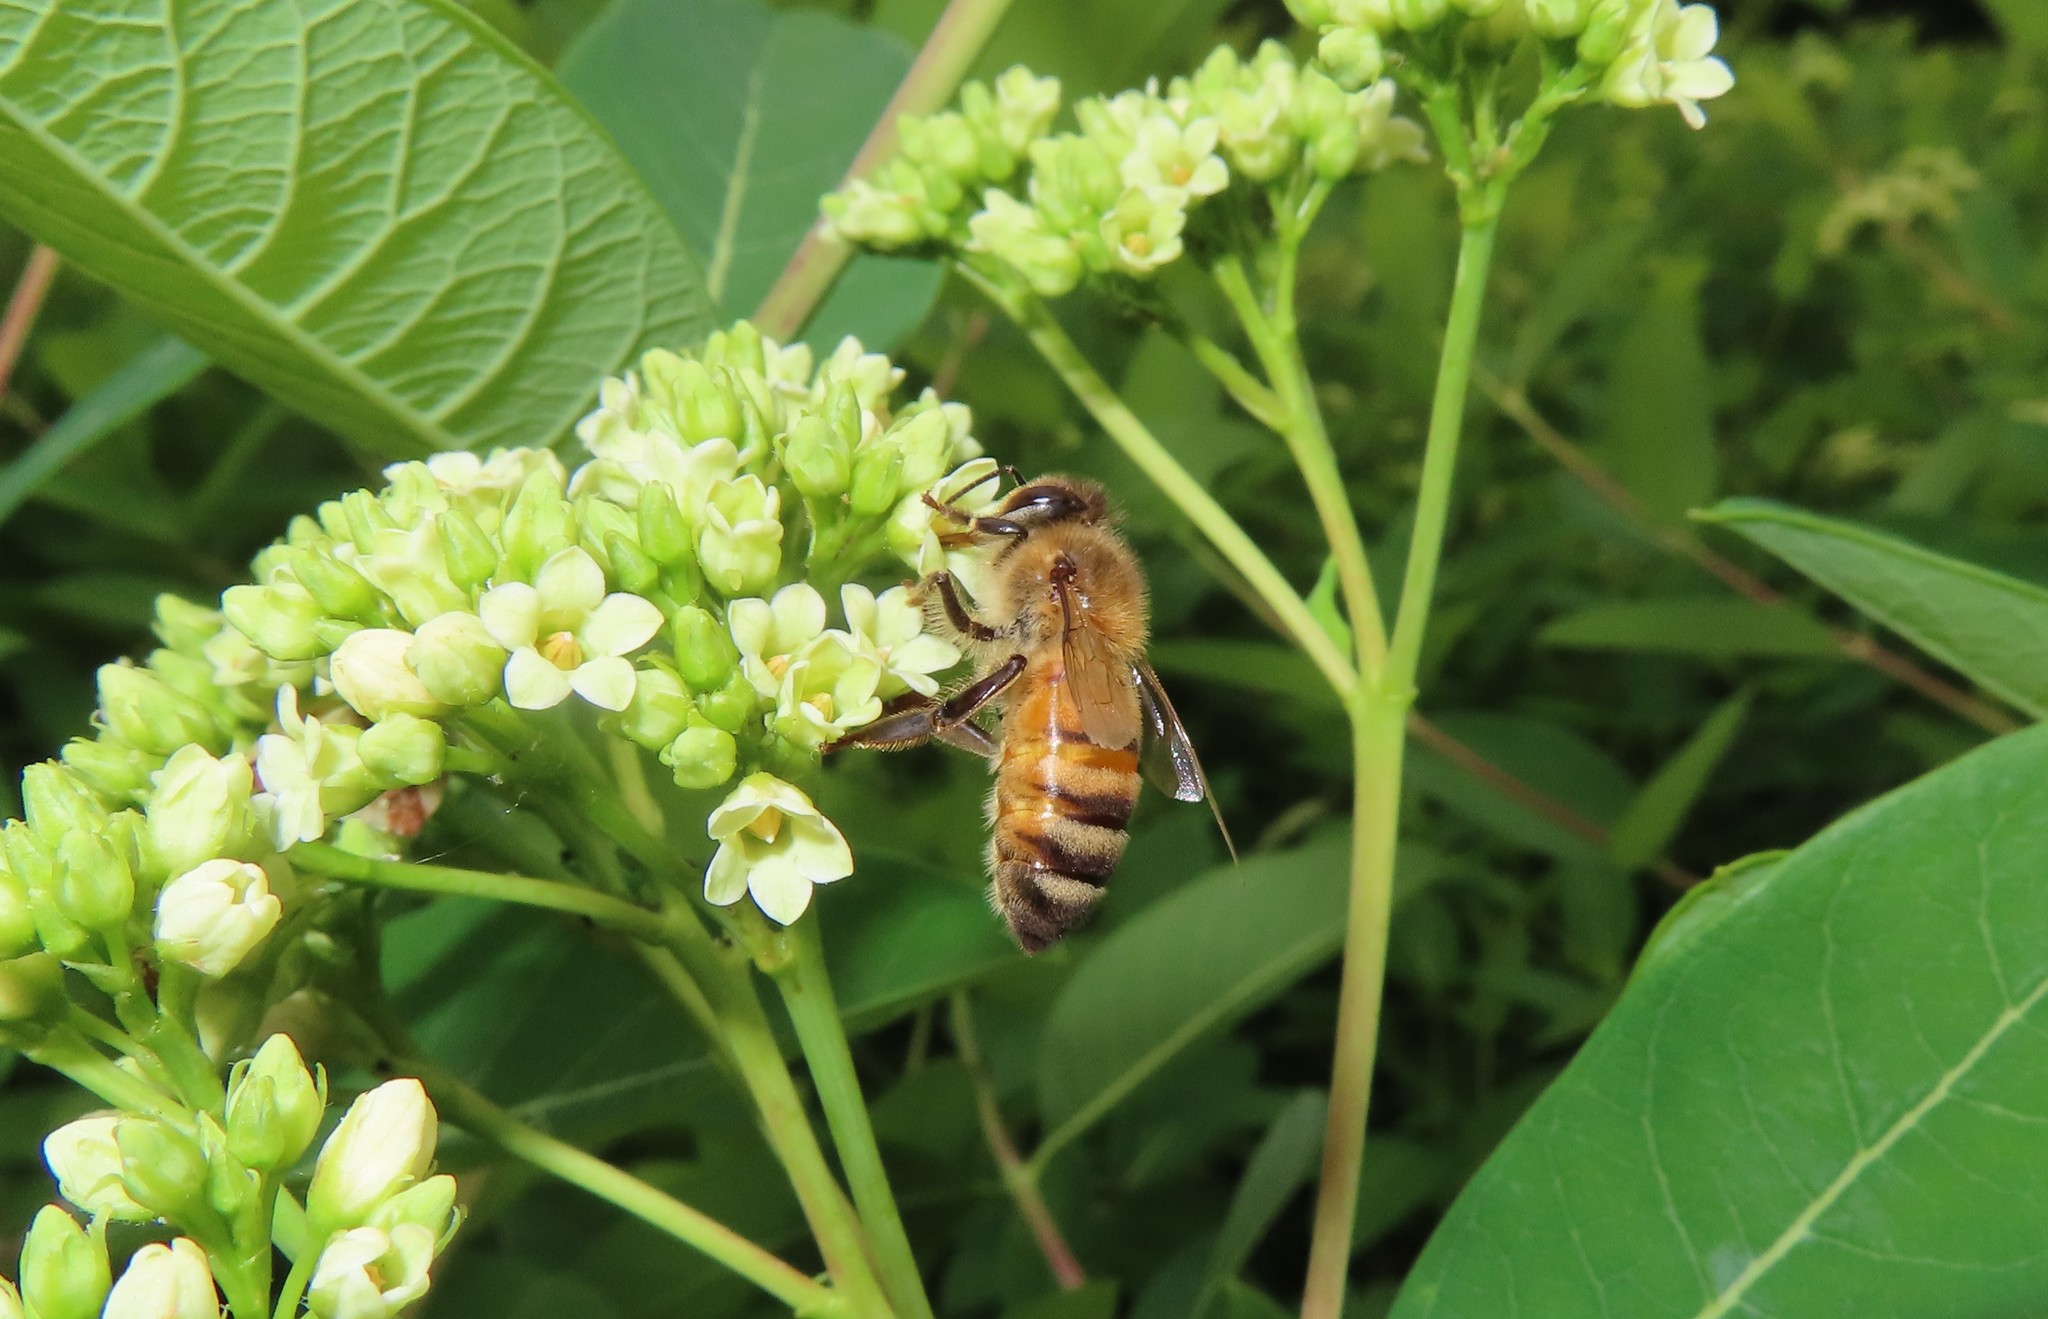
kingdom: Animalia
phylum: Arthropoda
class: Insecta
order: Hymenoptera
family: Apidae
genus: Apis
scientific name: Apis mellifera
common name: Honey bee
